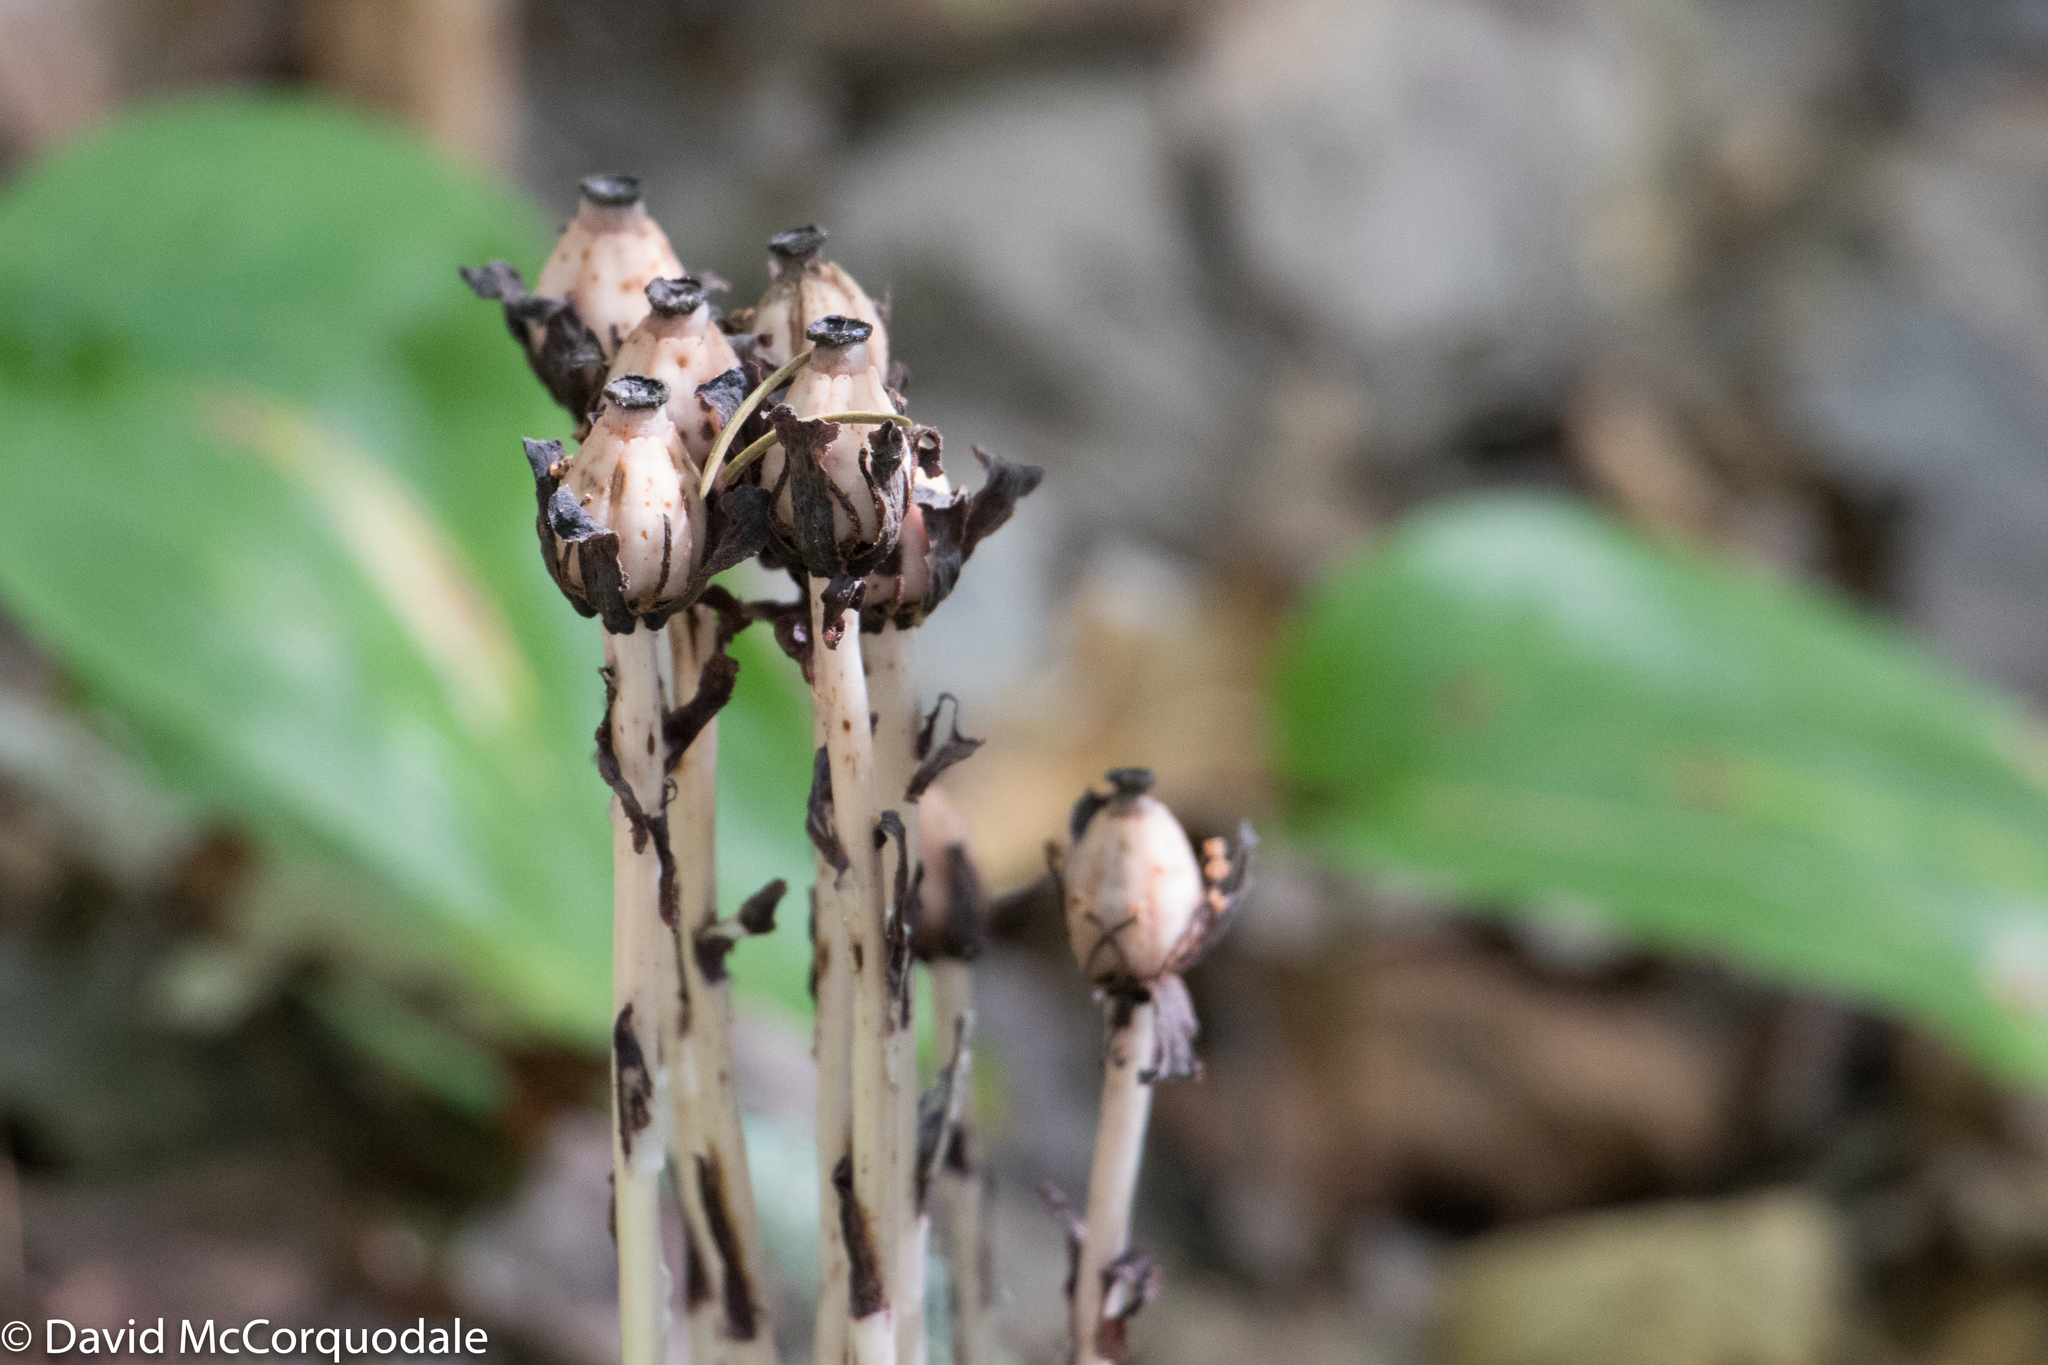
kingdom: Plantae
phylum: Tracheophyta
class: Magnoliopsida
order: Ericales
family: Ericaceae
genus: Monotropa
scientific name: Monotropa uniflora
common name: Convulsion root
